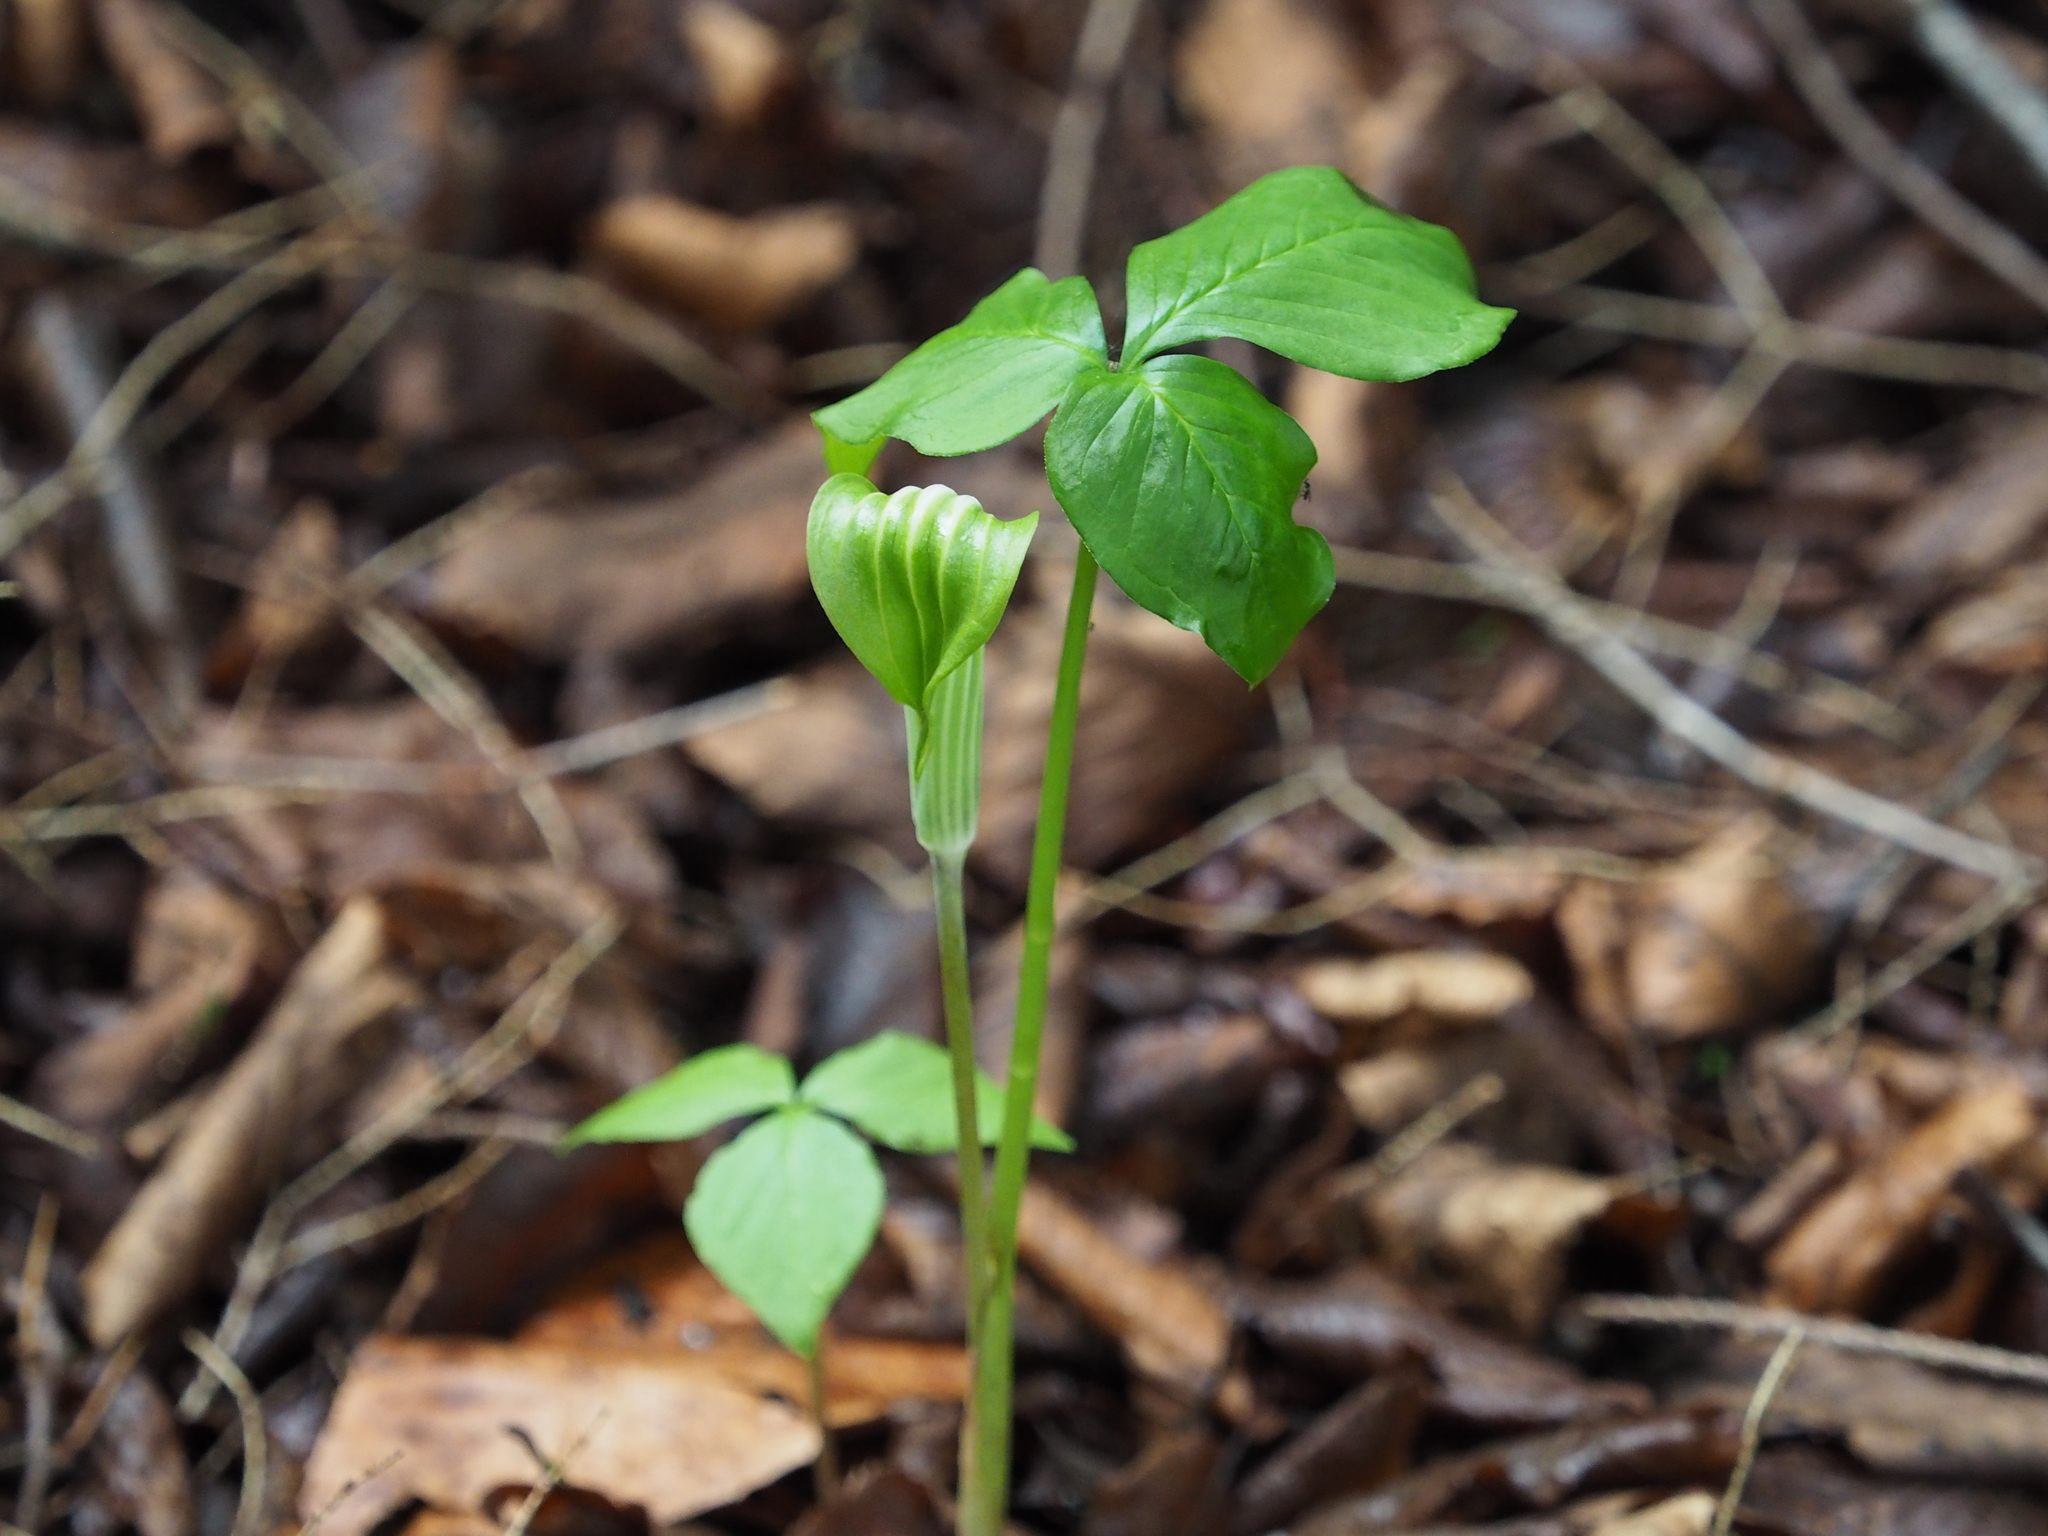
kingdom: Plantae
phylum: Tracheophyta
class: Liliopsida
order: Alismatales
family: Araceae
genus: Arisaema
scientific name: Arisaema stewardsonii
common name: Swamp jack-in-the-pulpit
